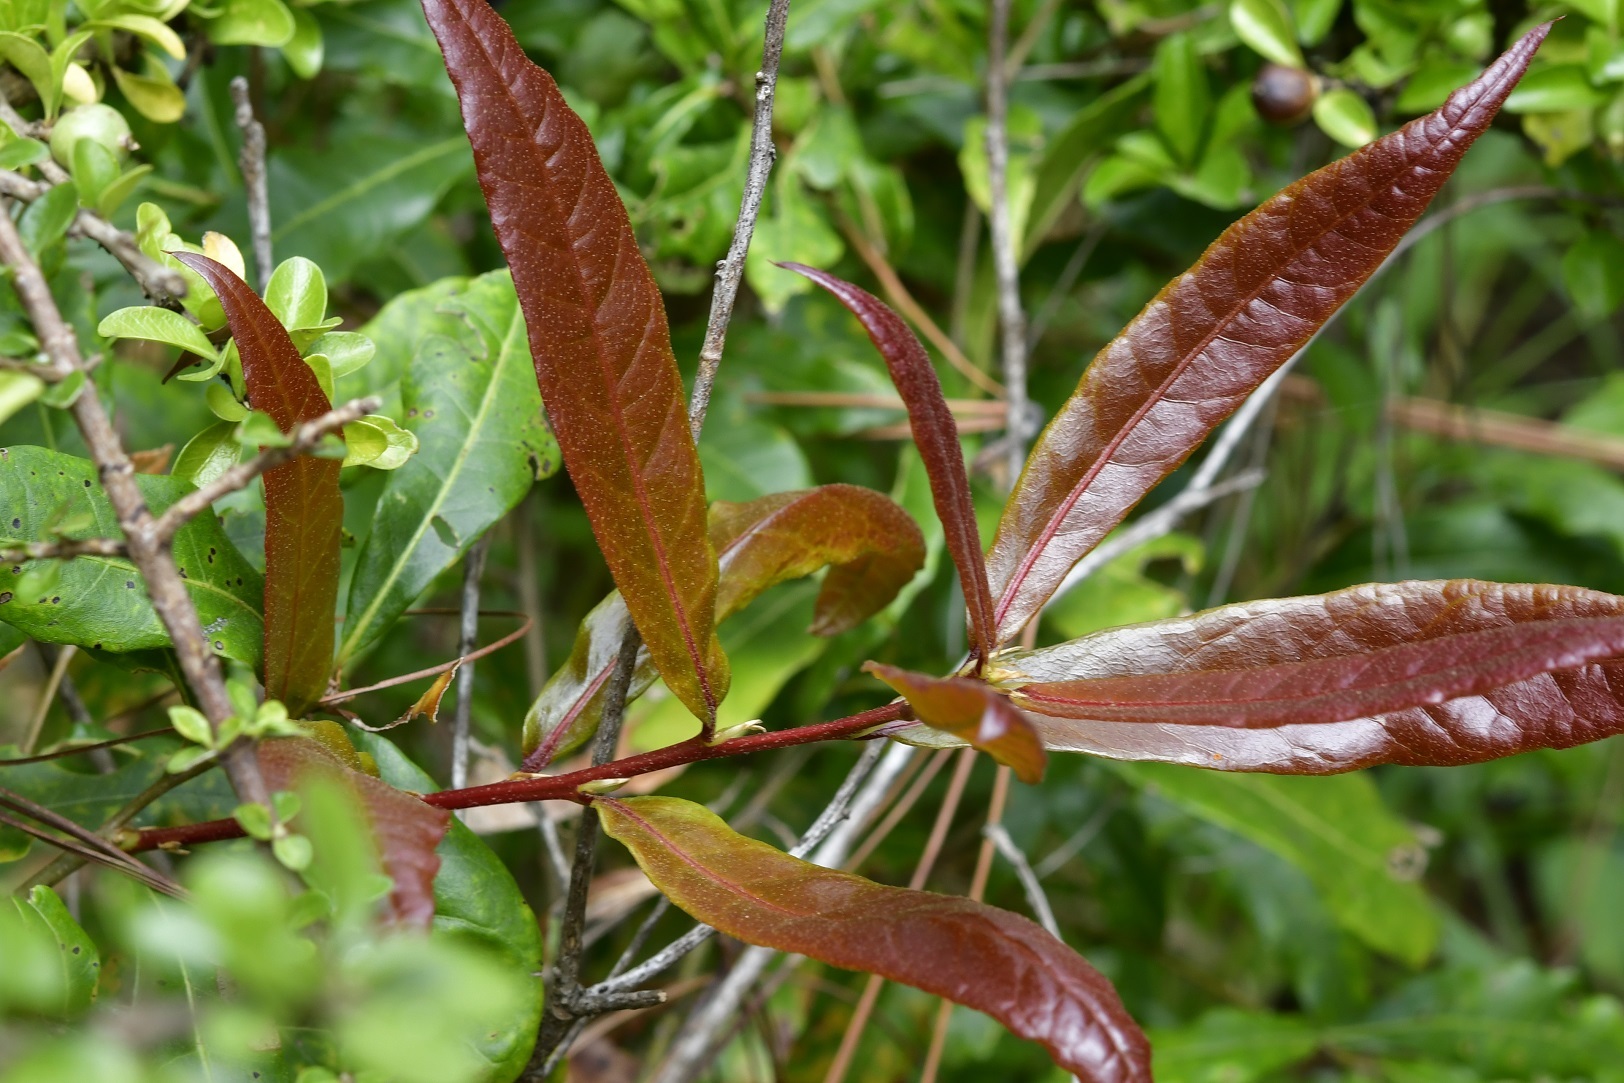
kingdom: Plantae
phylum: Tracheophyta
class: Magnoliopsida
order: Fagales
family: Fagaceae
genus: Quercus
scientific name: Quercus sapotifolia
